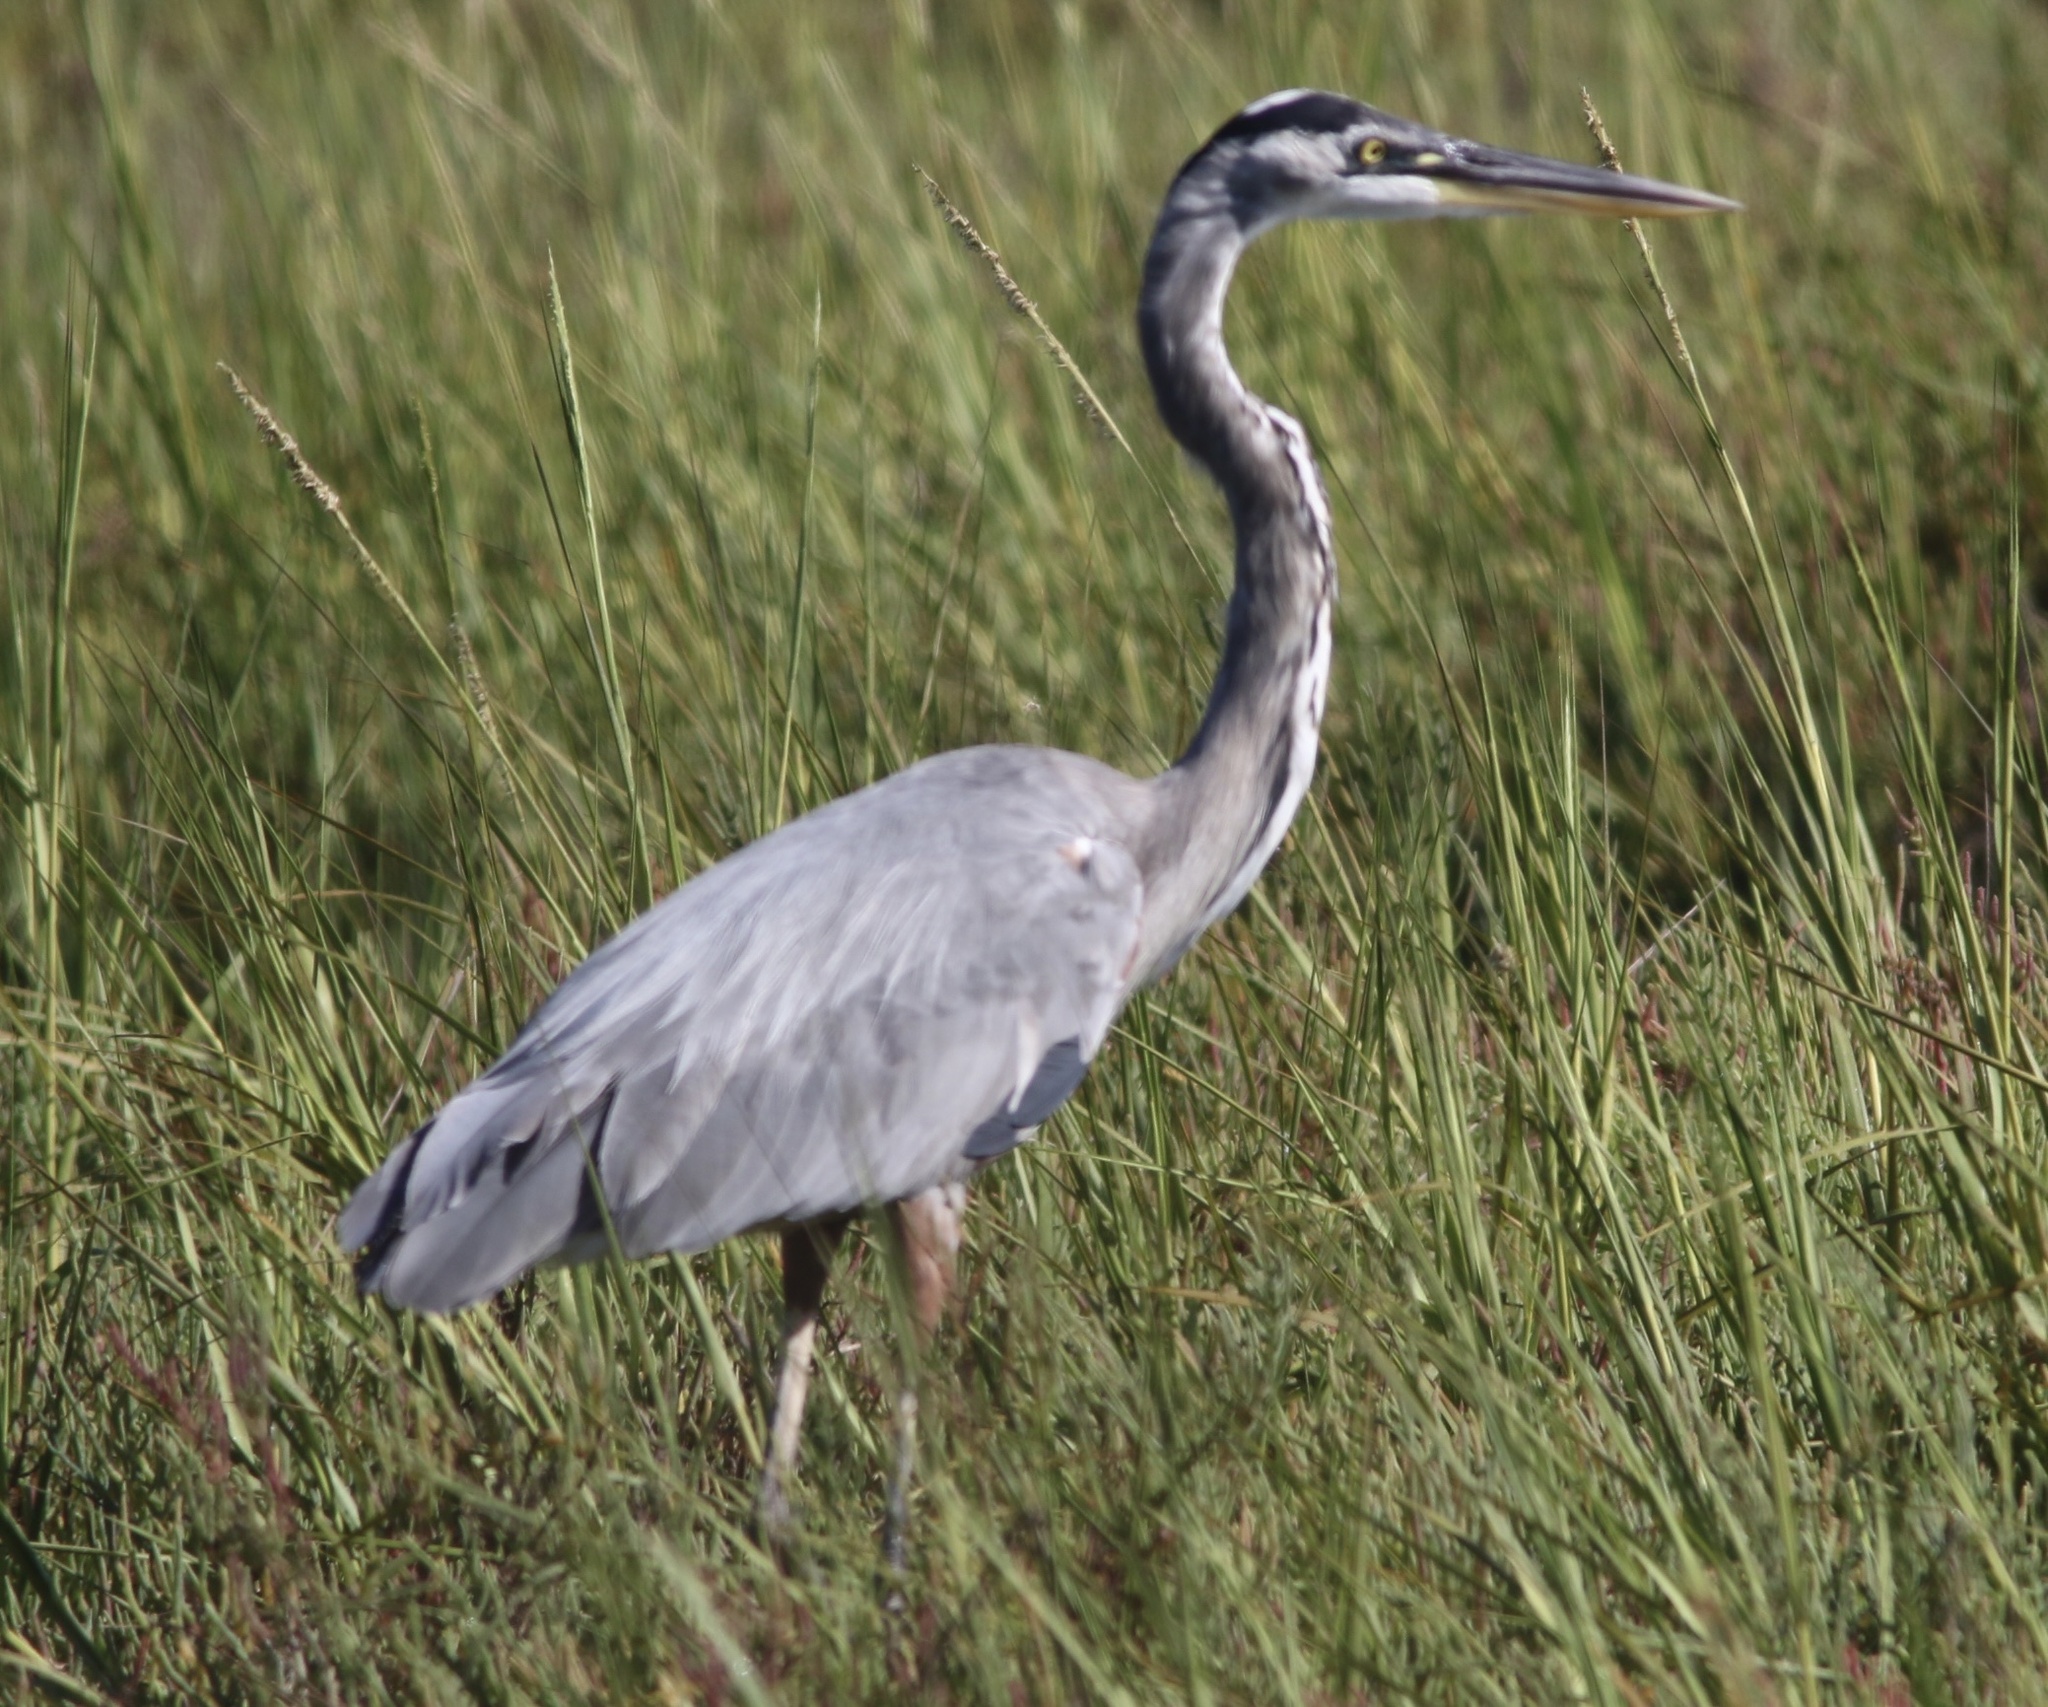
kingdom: Animalia
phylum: Chordata
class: Aves
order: Pelecaniformes
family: Ardeidae
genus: Ardea
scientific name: Ardea herodias
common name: Great blue heron
